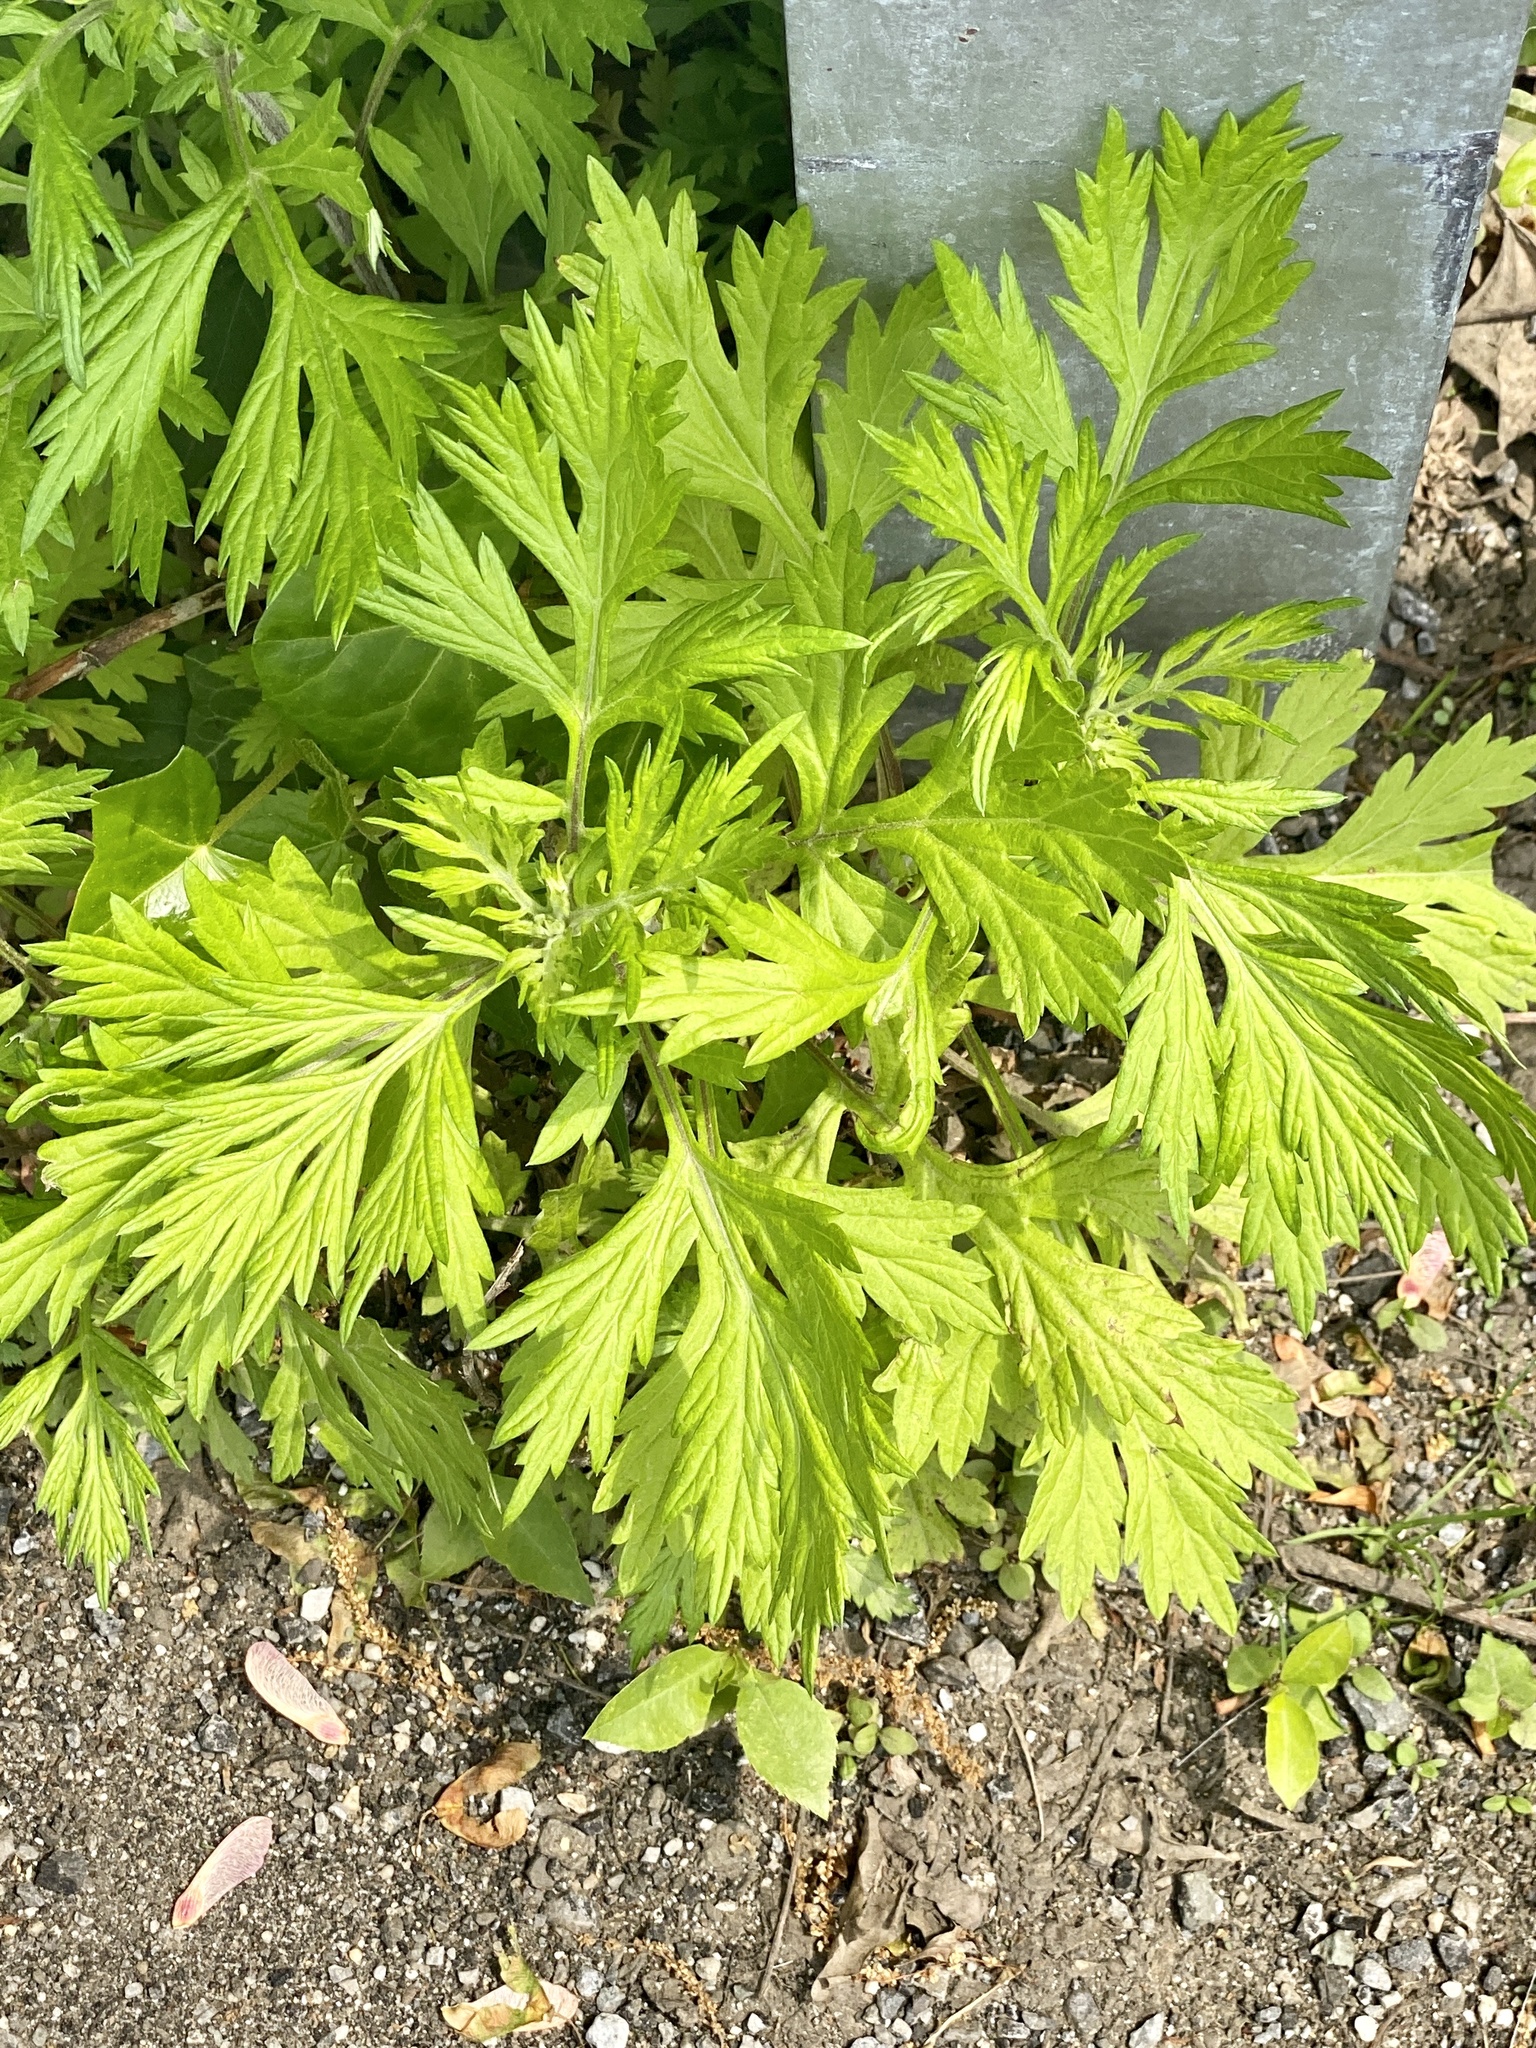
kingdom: Plantae
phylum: Tracheophyta
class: Magnoliopsida
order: Asterales
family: Asteraceae
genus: Artemisia
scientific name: Artemisia vulgaris
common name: Mugwort
